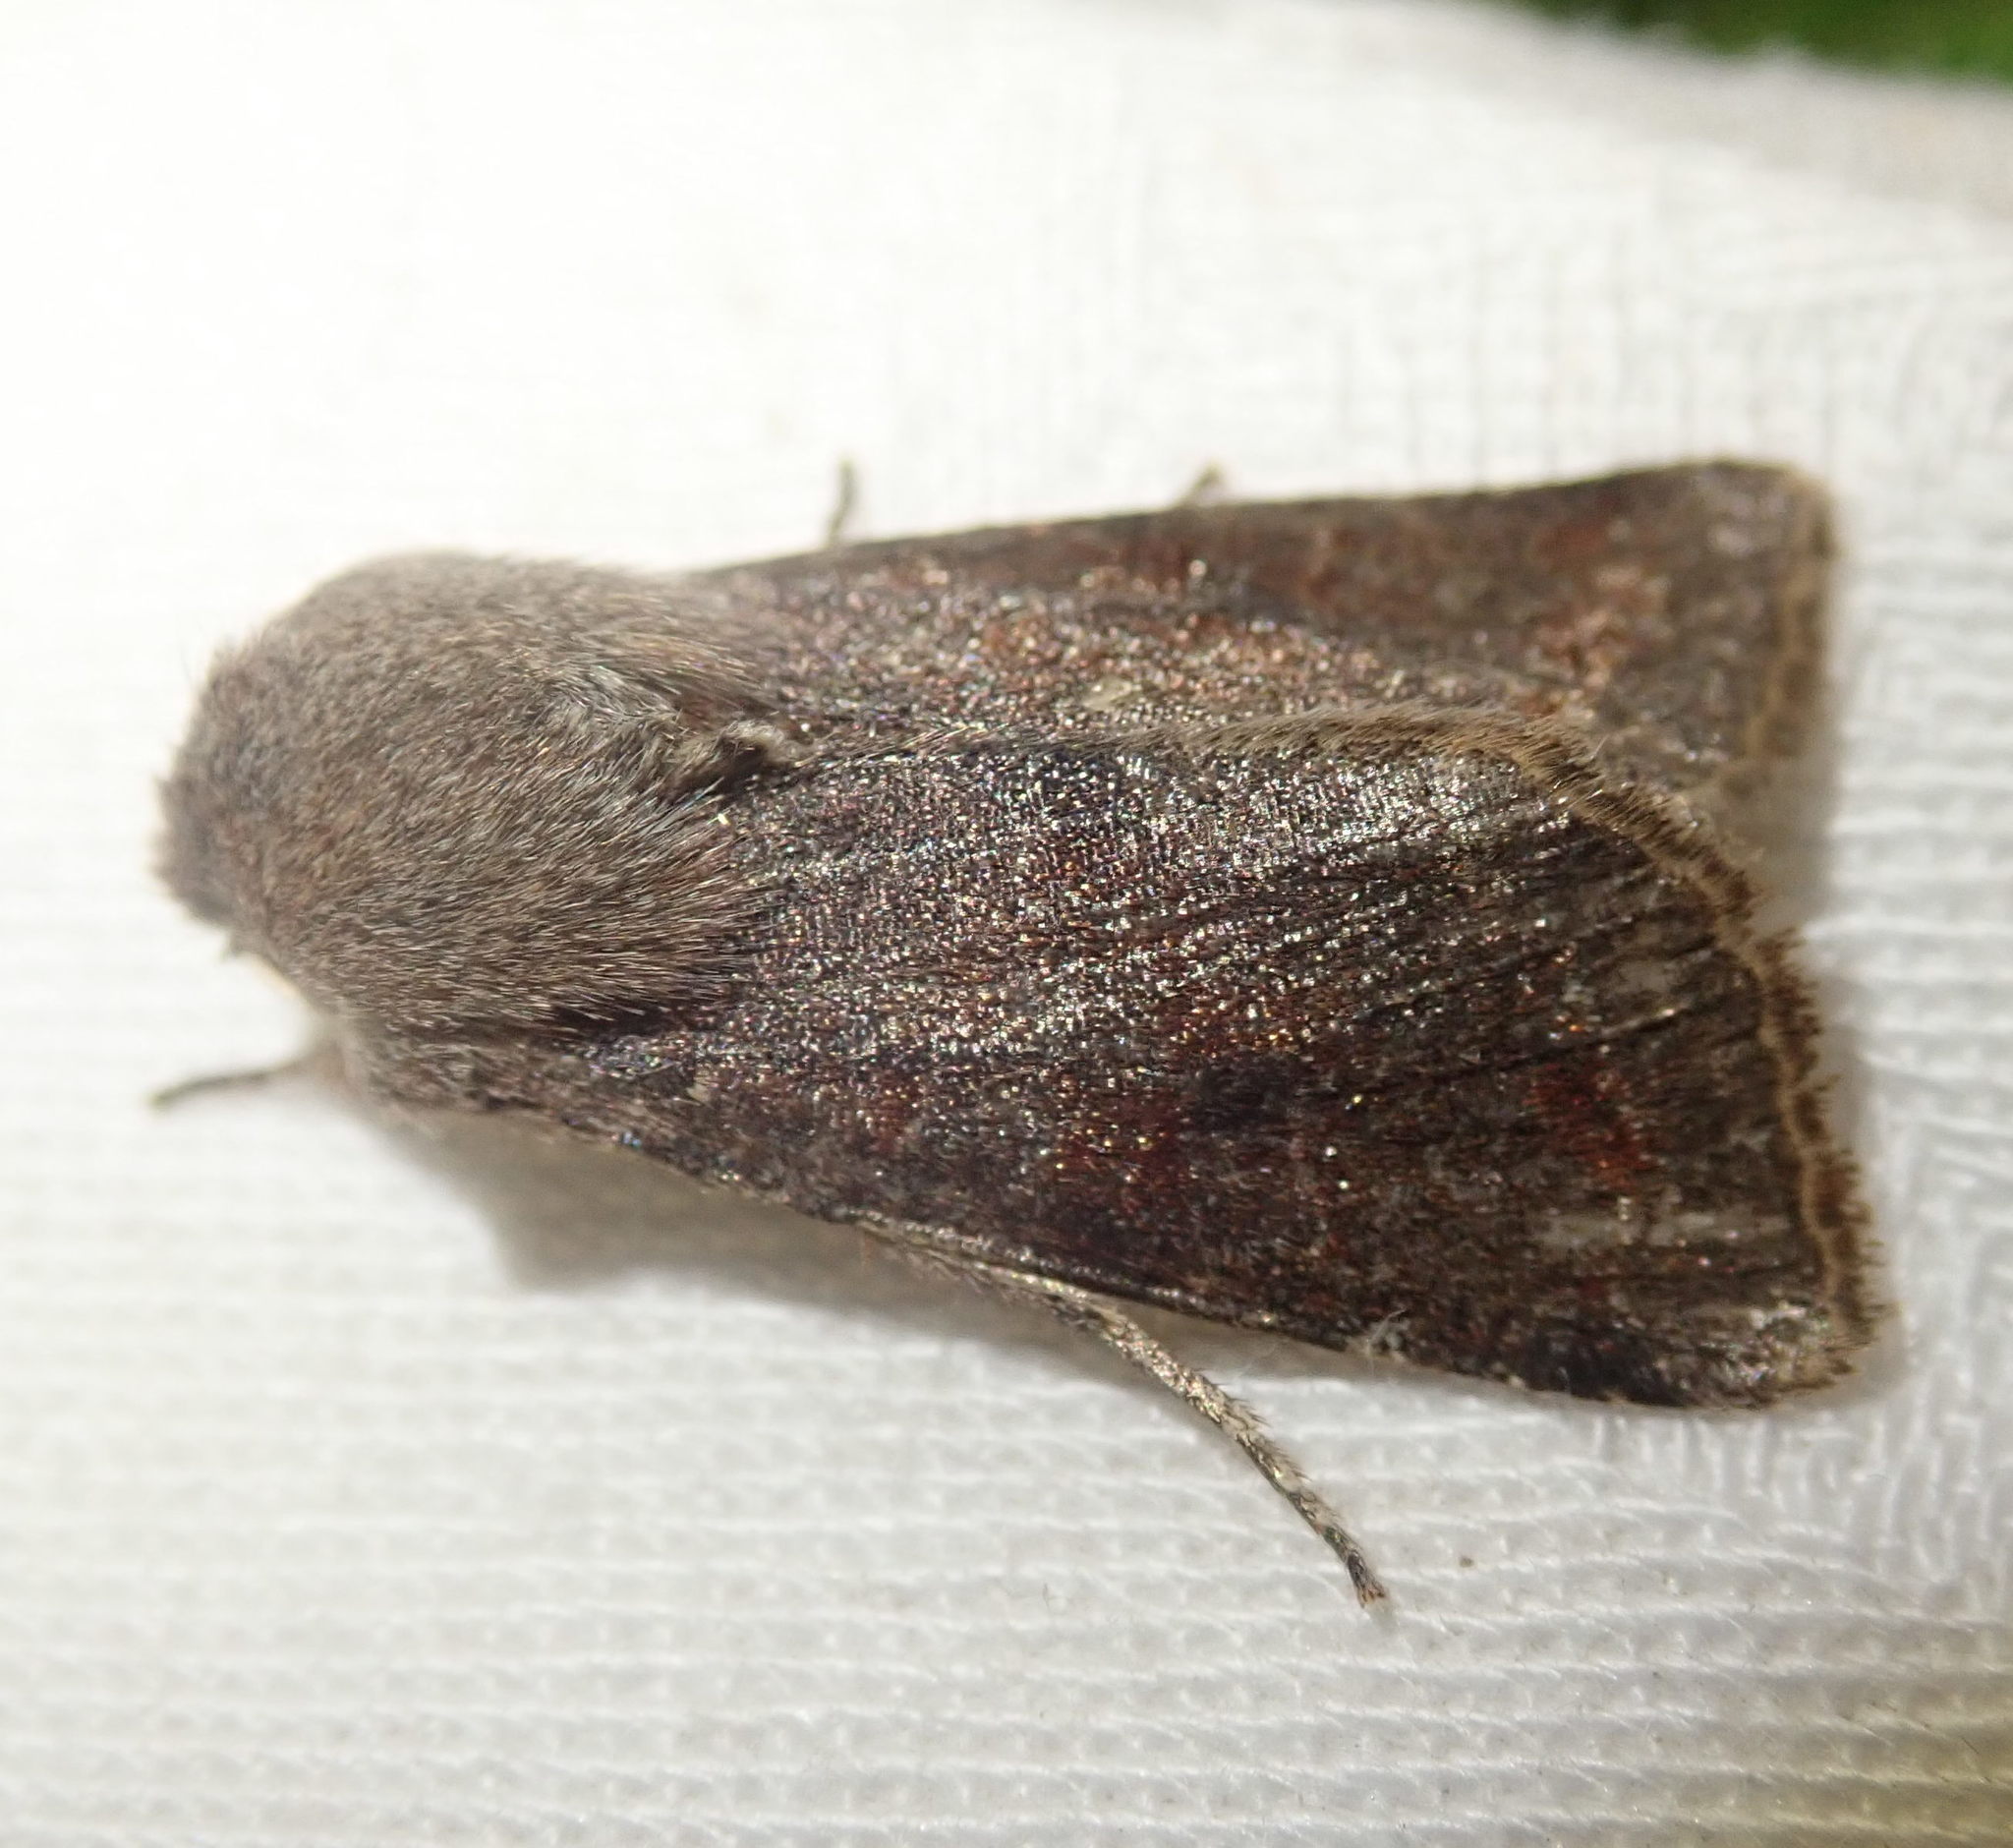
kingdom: Animalia
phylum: Arthropoda
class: Insecta
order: Lepidoptera
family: Noctuidae
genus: Orthosia
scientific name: Orthosia incerta
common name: Clouded drab
